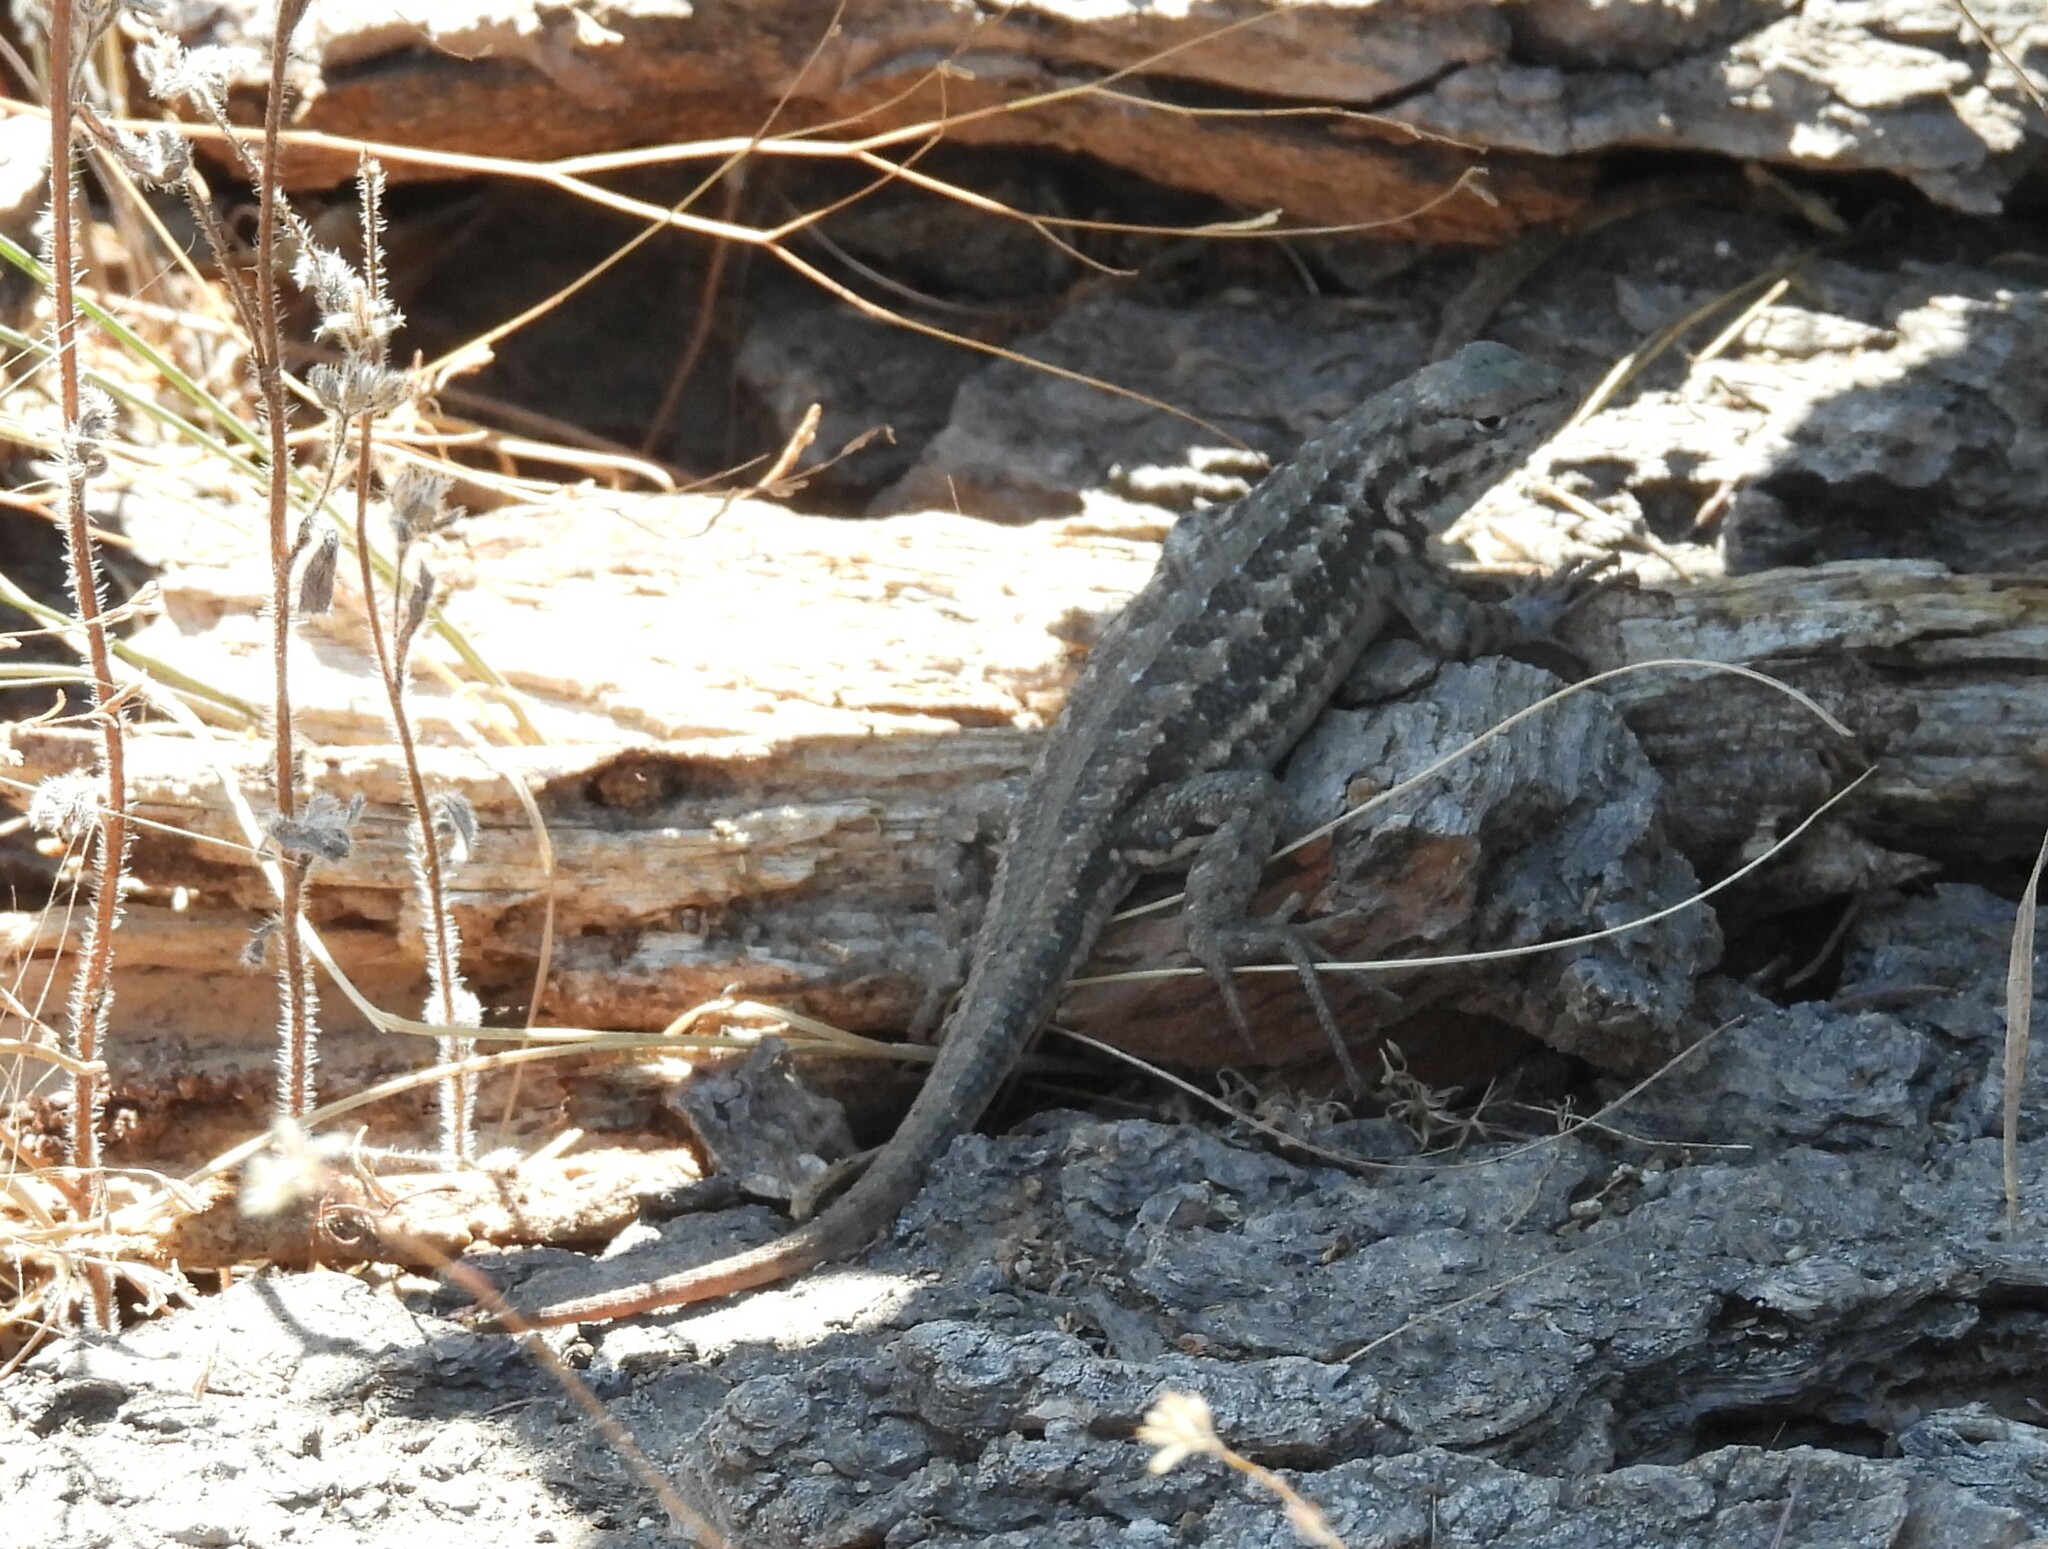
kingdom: Animalia
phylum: Chordata
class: Squamata
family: Phrynosomatidae
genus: Sceloporus
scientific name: Sceloporus occidentalis
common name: Western fence lizard
